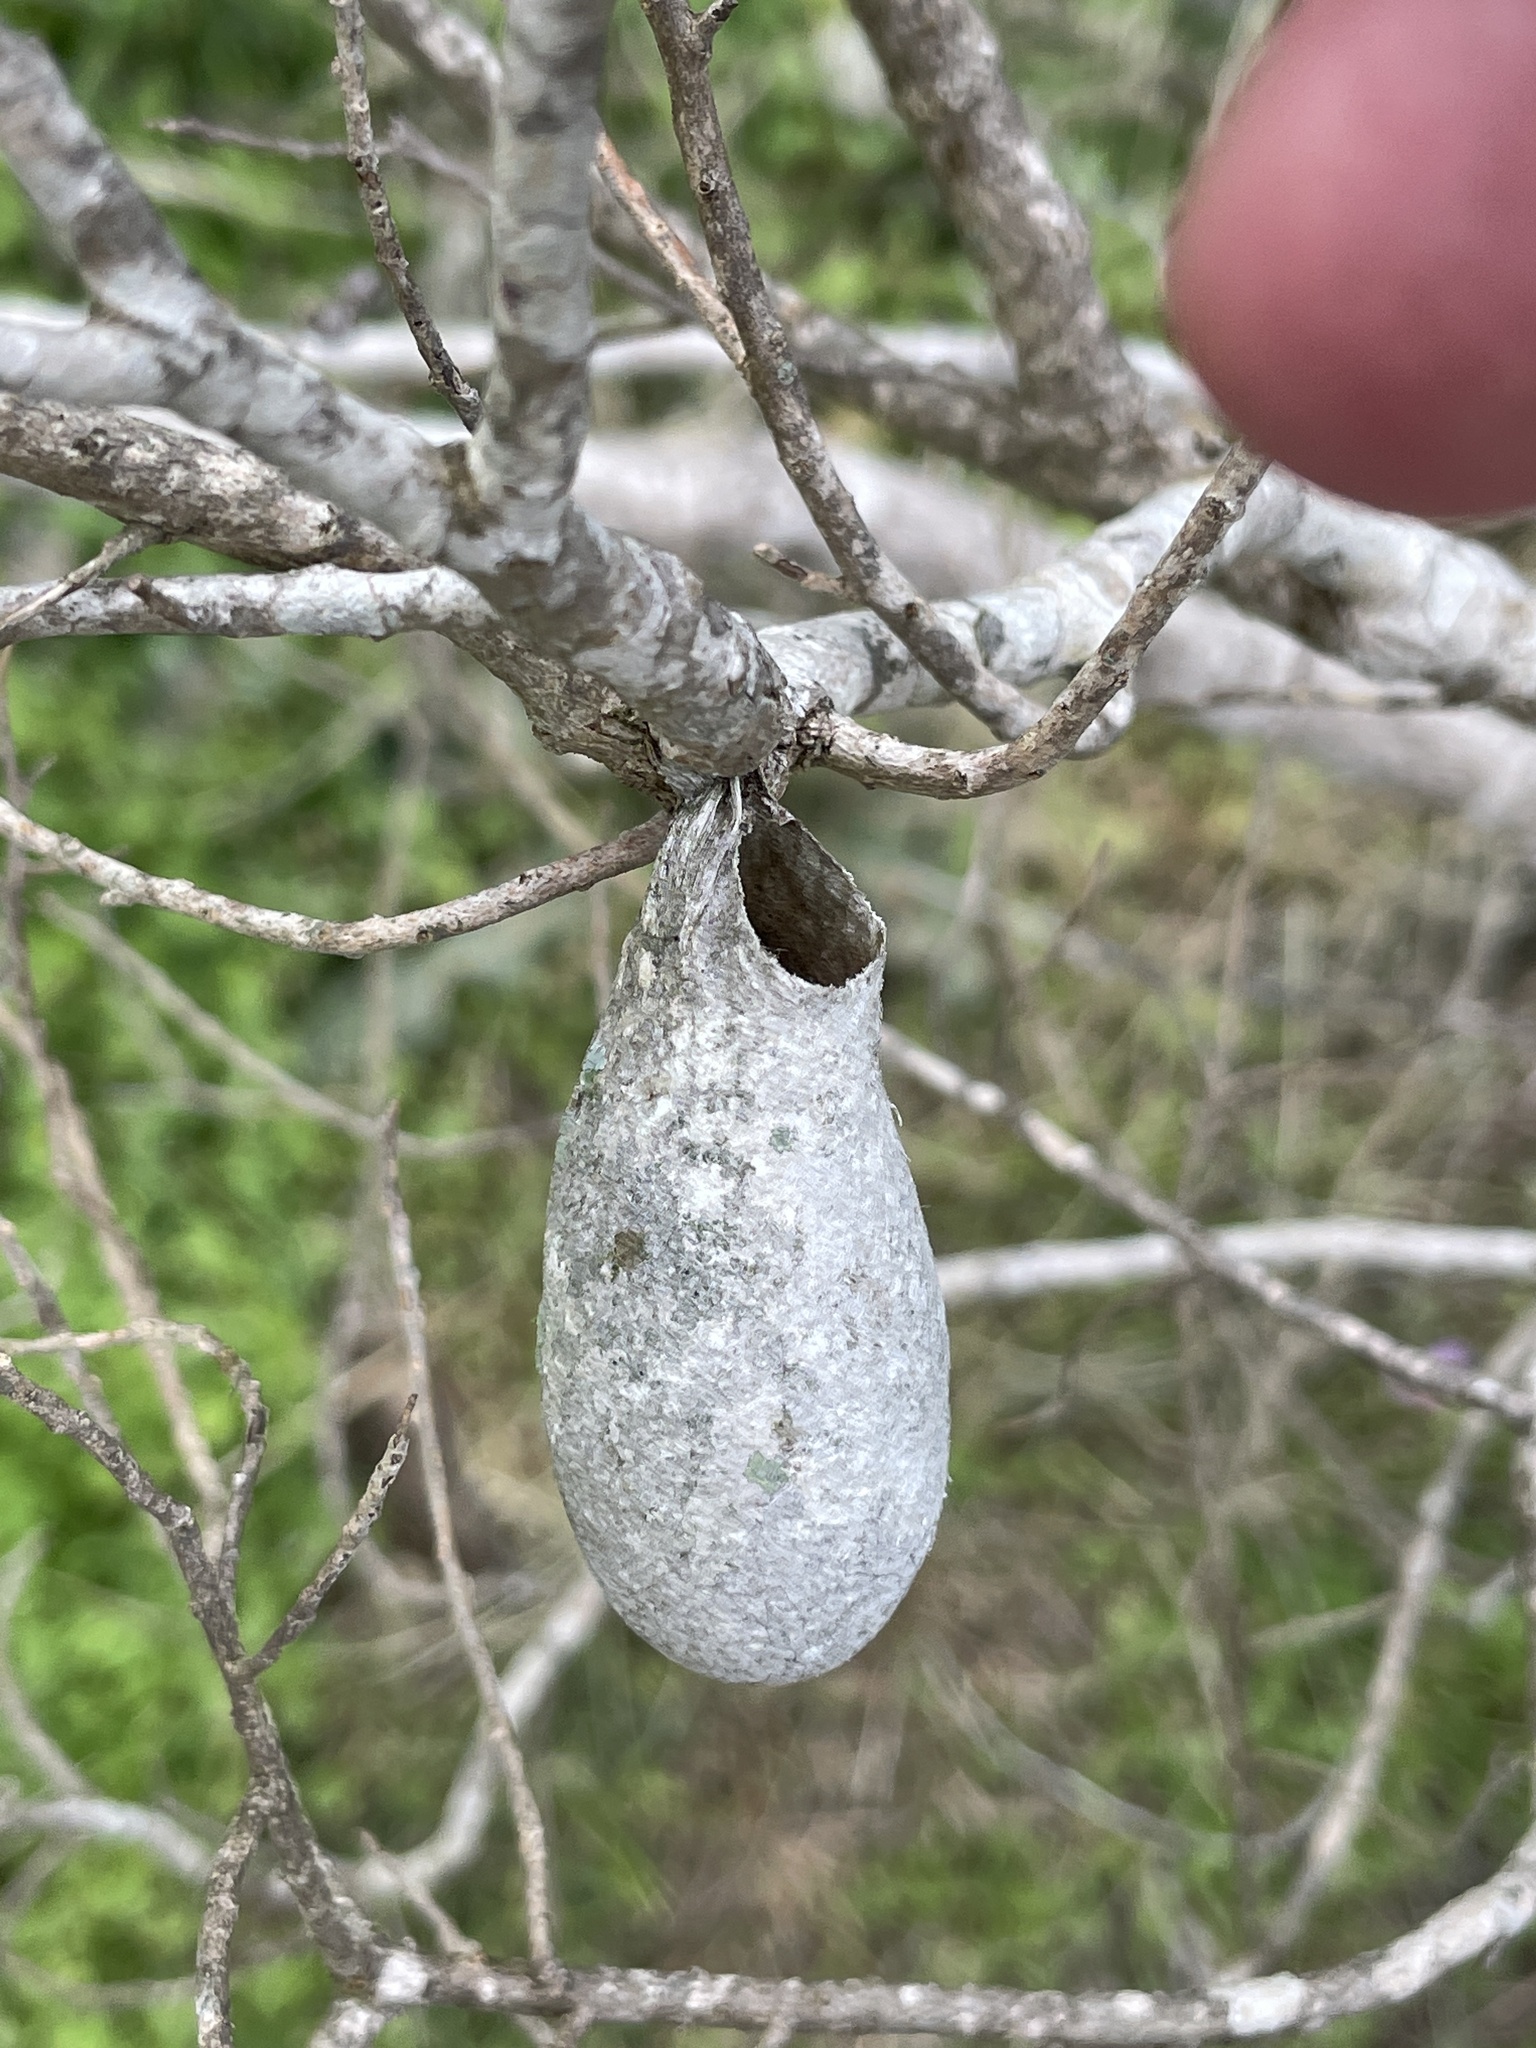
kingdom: Animalia
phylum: Arthropoda
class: Insecta
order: Lepidoptera
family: Saturniidae
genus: Eupackardia
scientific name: Eupackardia calleta
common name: Calleta silkmoth
